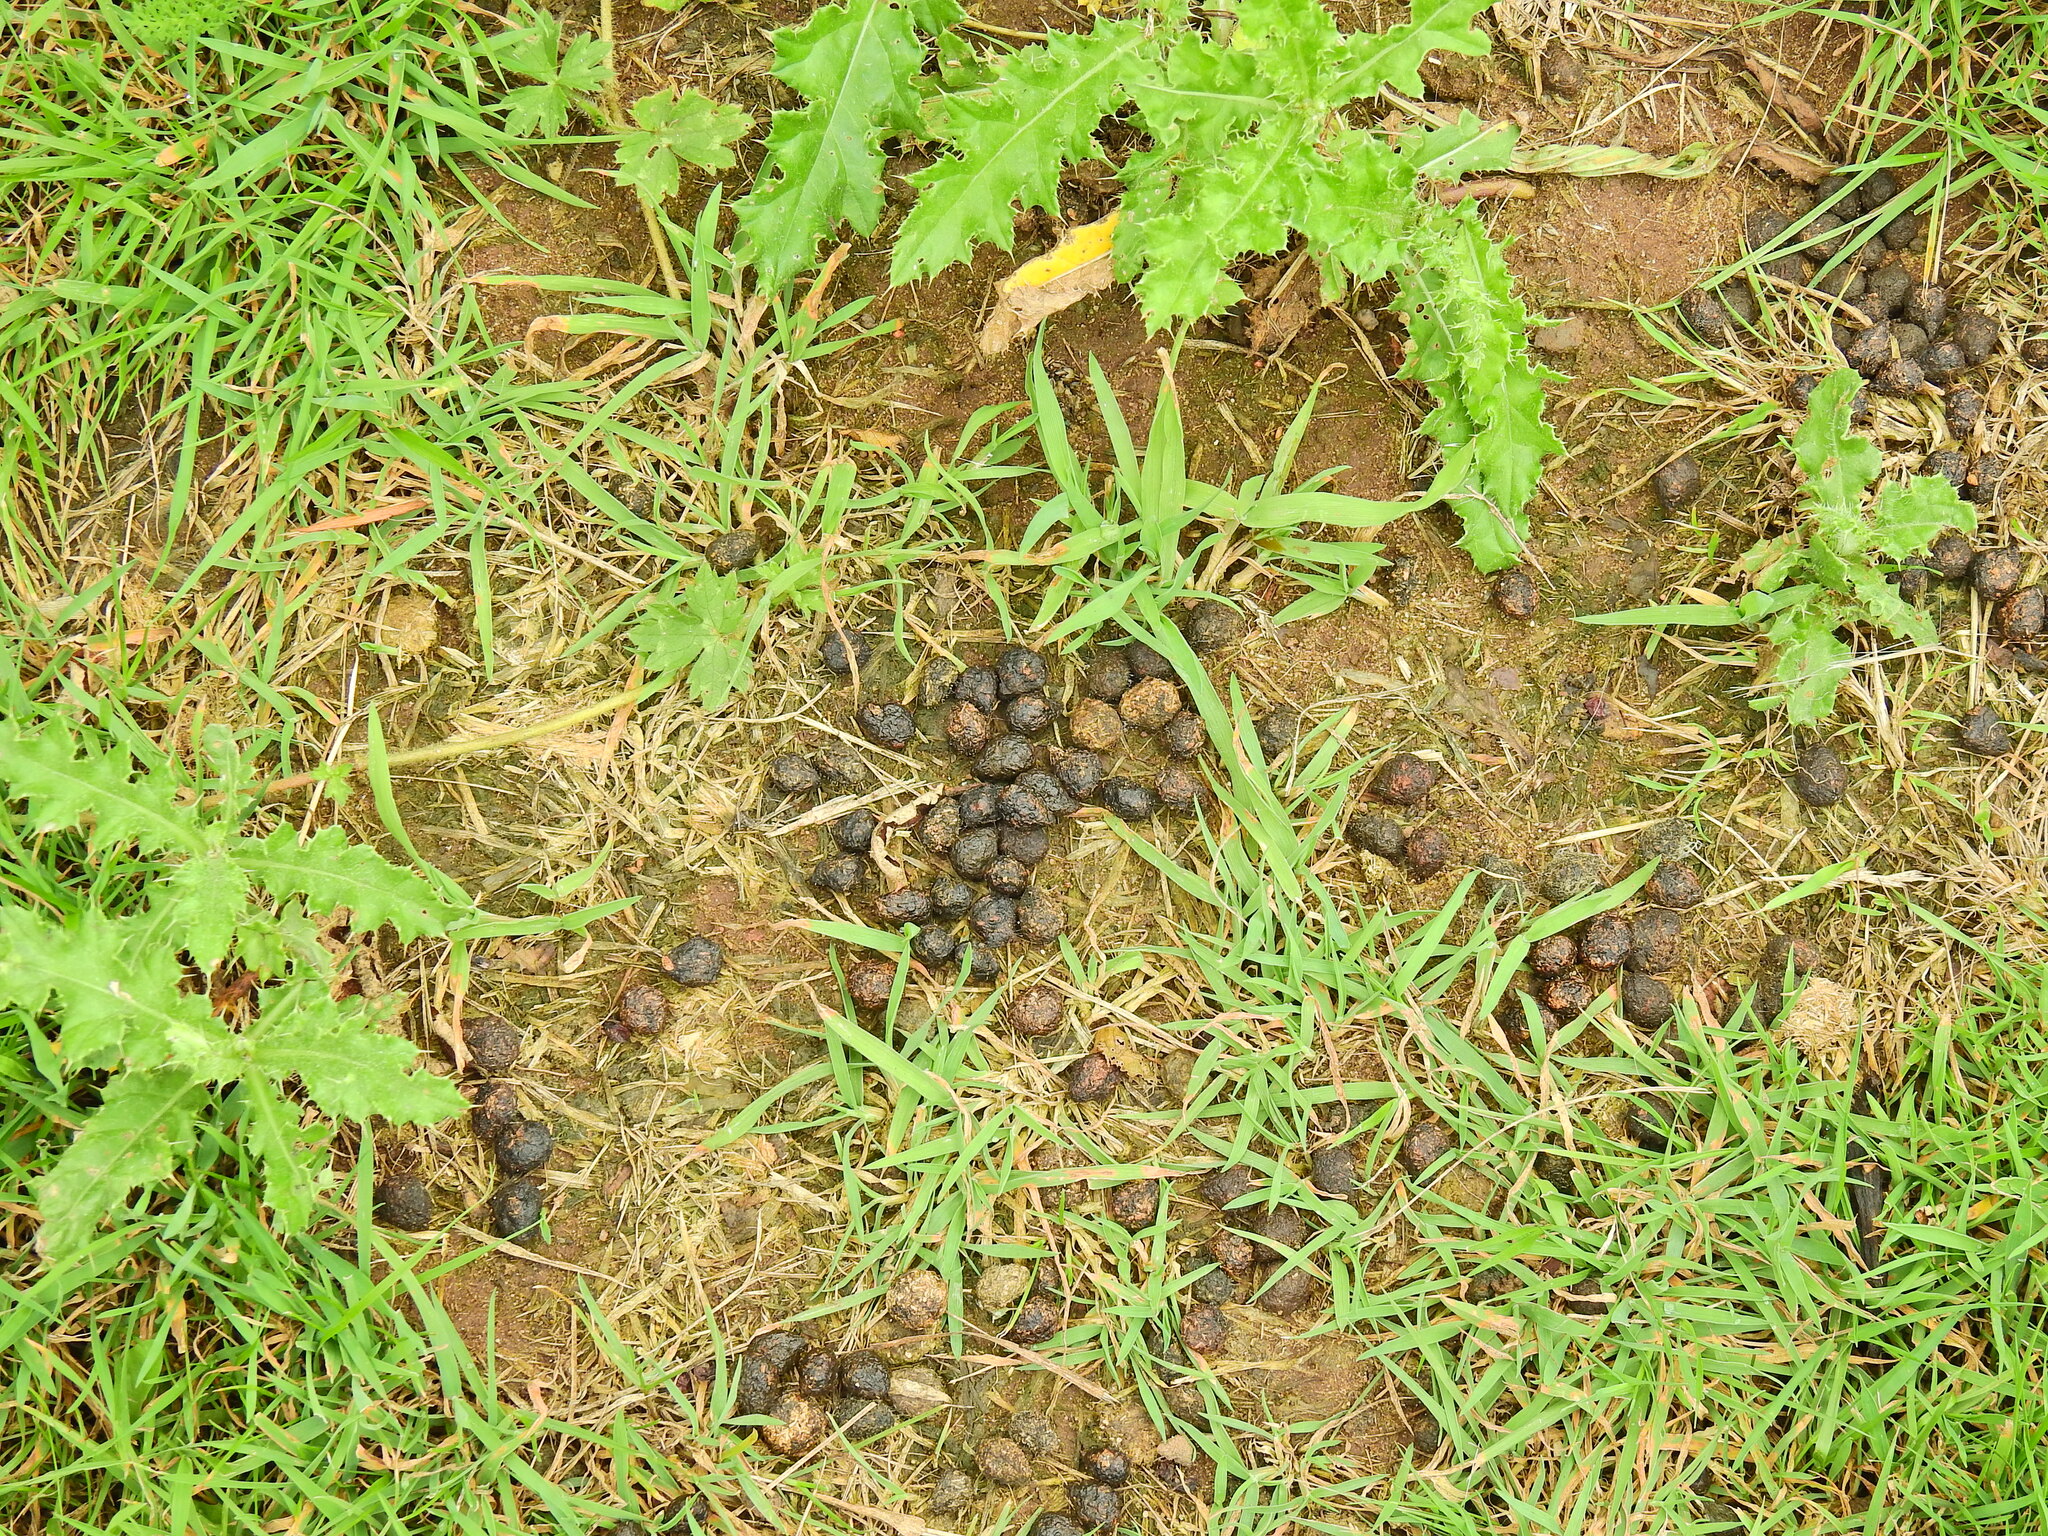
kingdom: Animalia
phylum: Chordata
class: Mammalia
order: Lagomorpha
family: Leporidae
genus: Oryctolagus
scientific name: Oryctolagus cuniculus
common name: European rabbit
